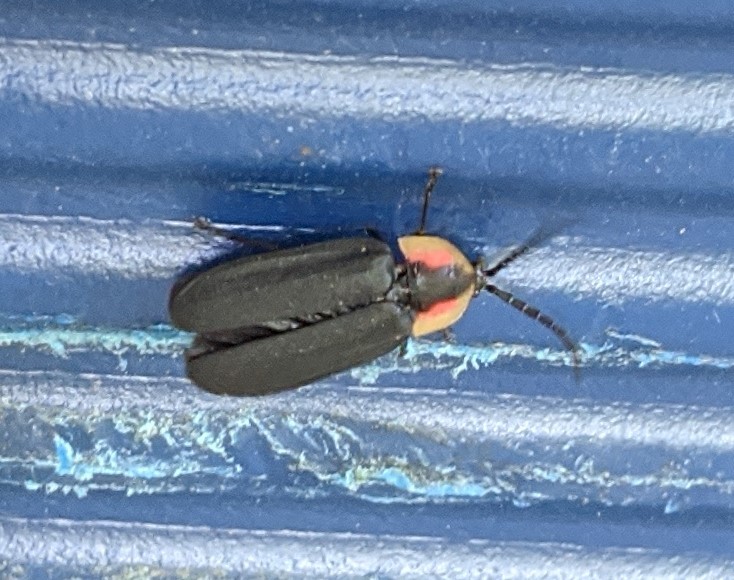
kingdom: Animalia
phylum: Arthropoda
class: Insecta
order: Coleoptera
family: Lampyridae
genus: Lucidota
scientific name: Lucidota atra
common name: Black firefly
